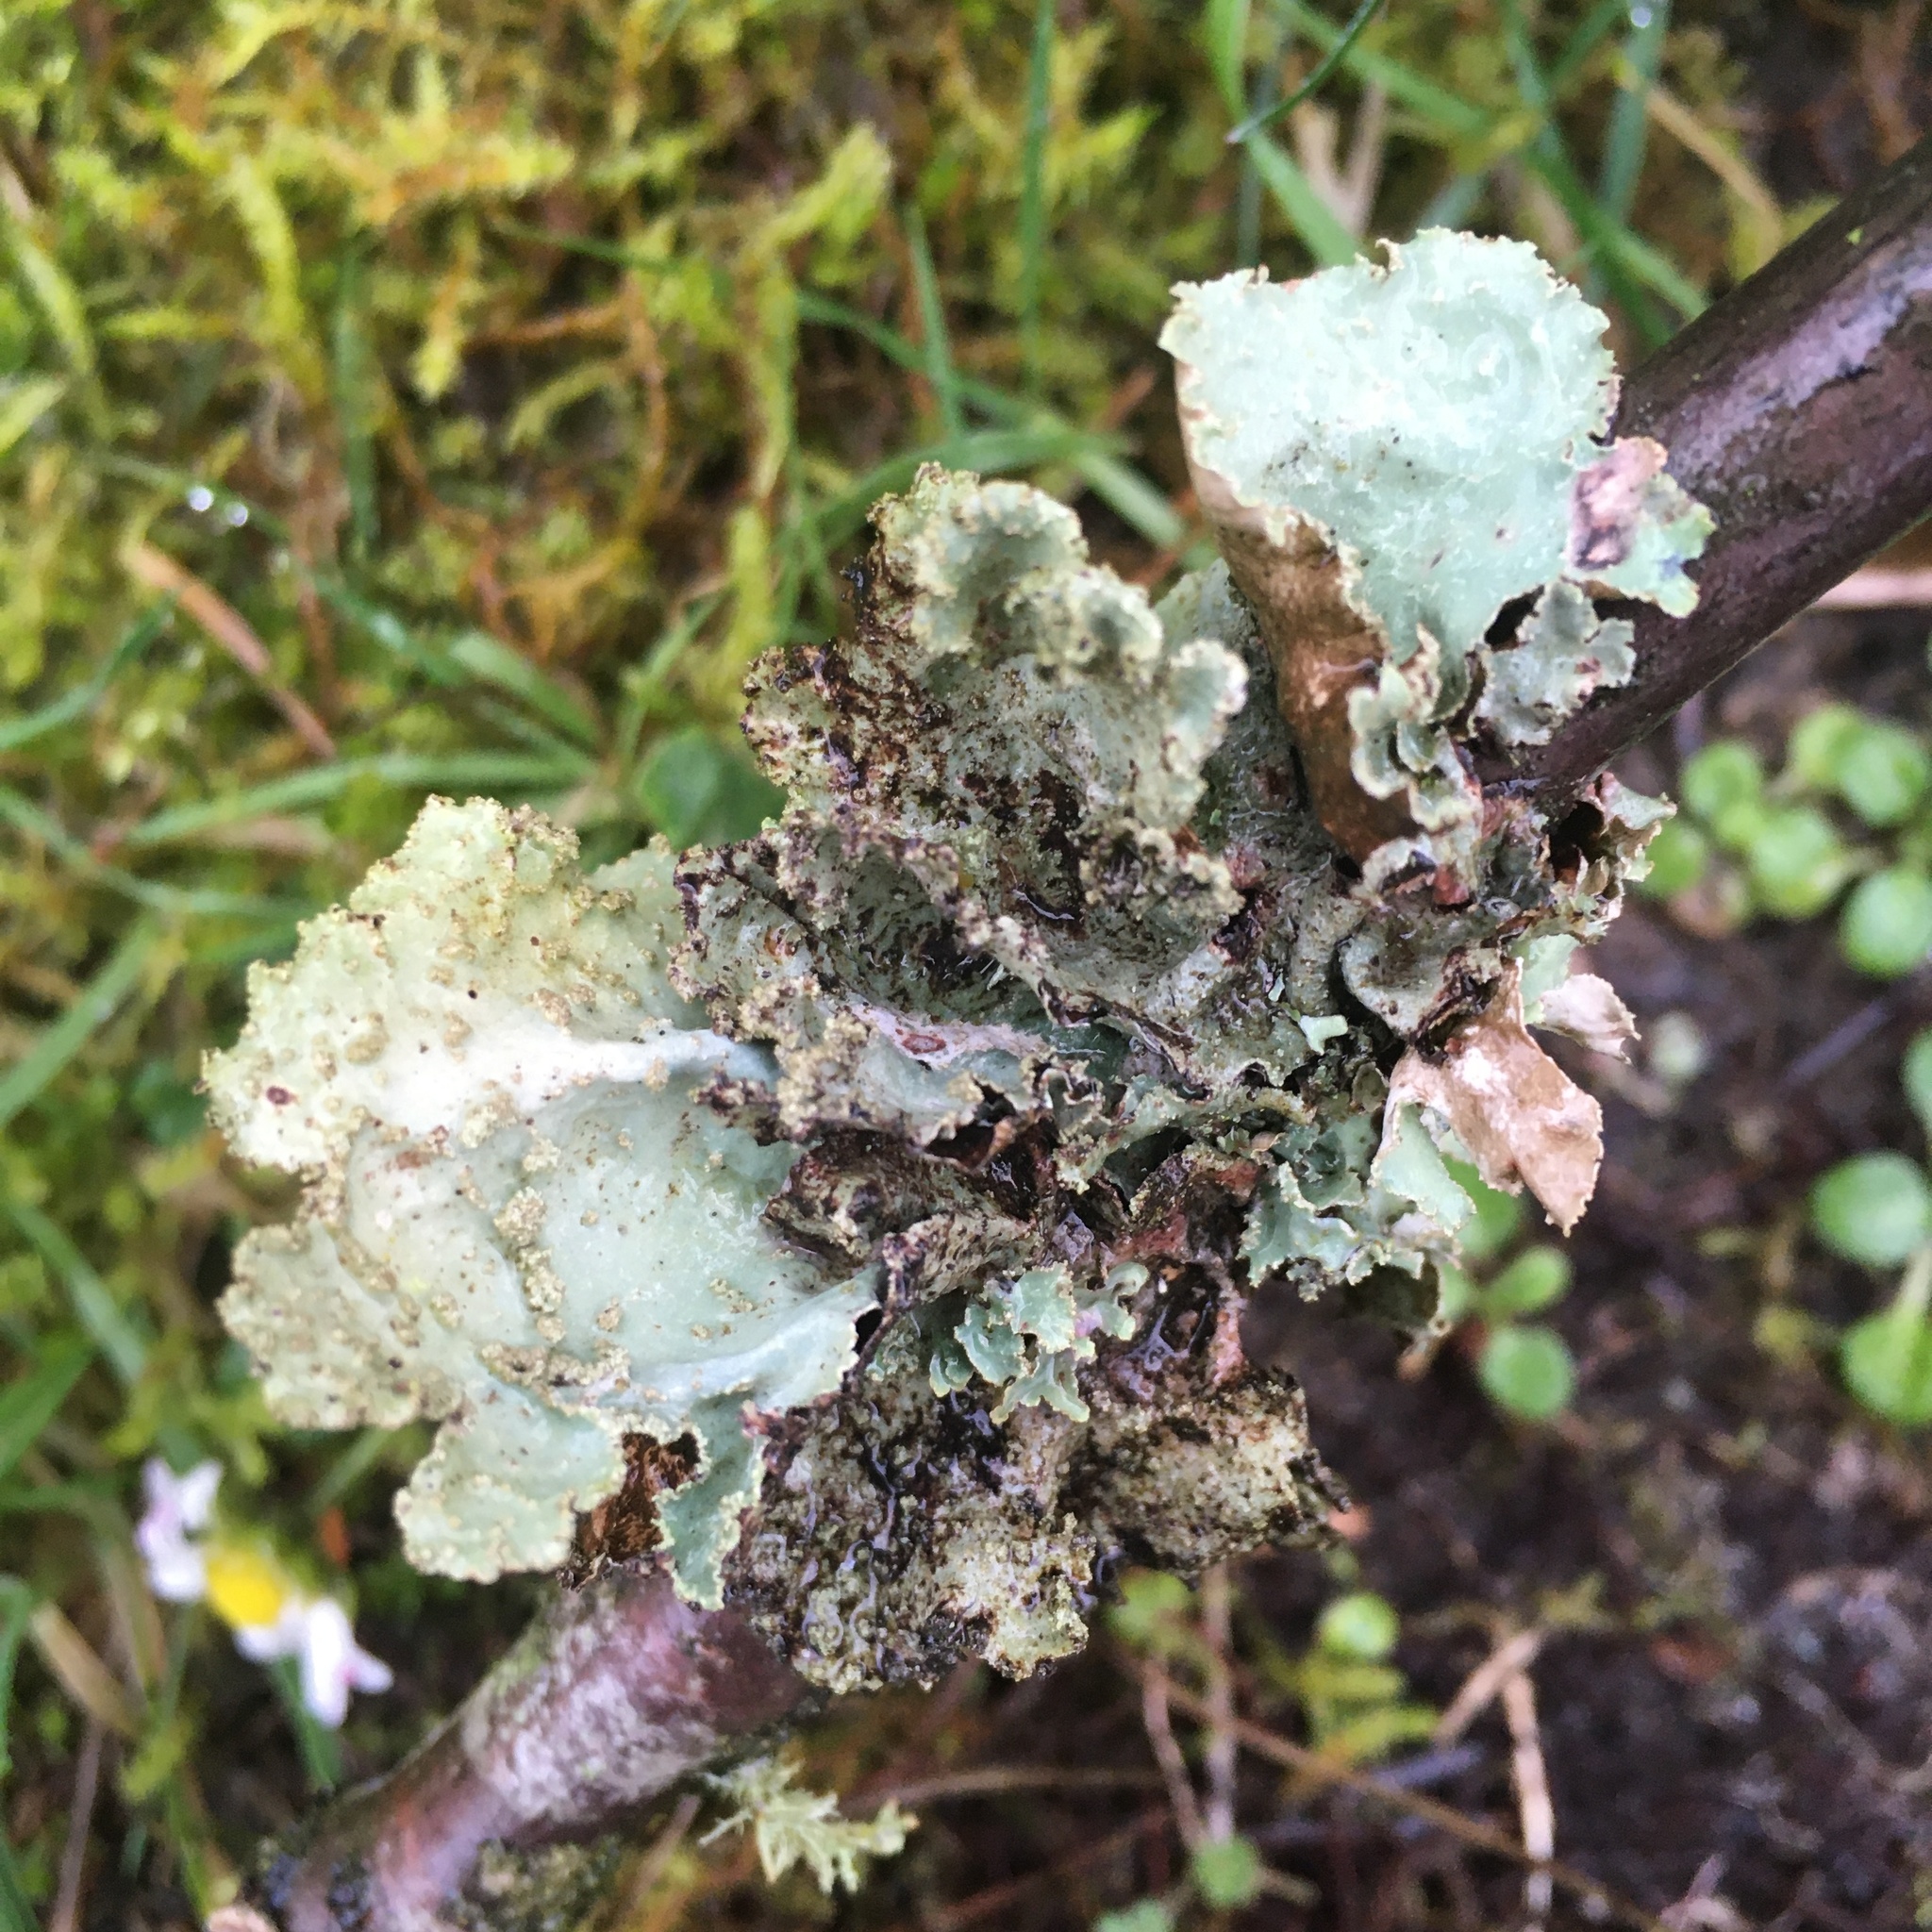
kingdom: Fungi
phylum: Ascomycota
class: Lecanoromycetes
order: Lecanorales
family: Parmeliaceae
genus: Platismatia
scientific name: Platismatia glauca
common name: Varied rag lichen
